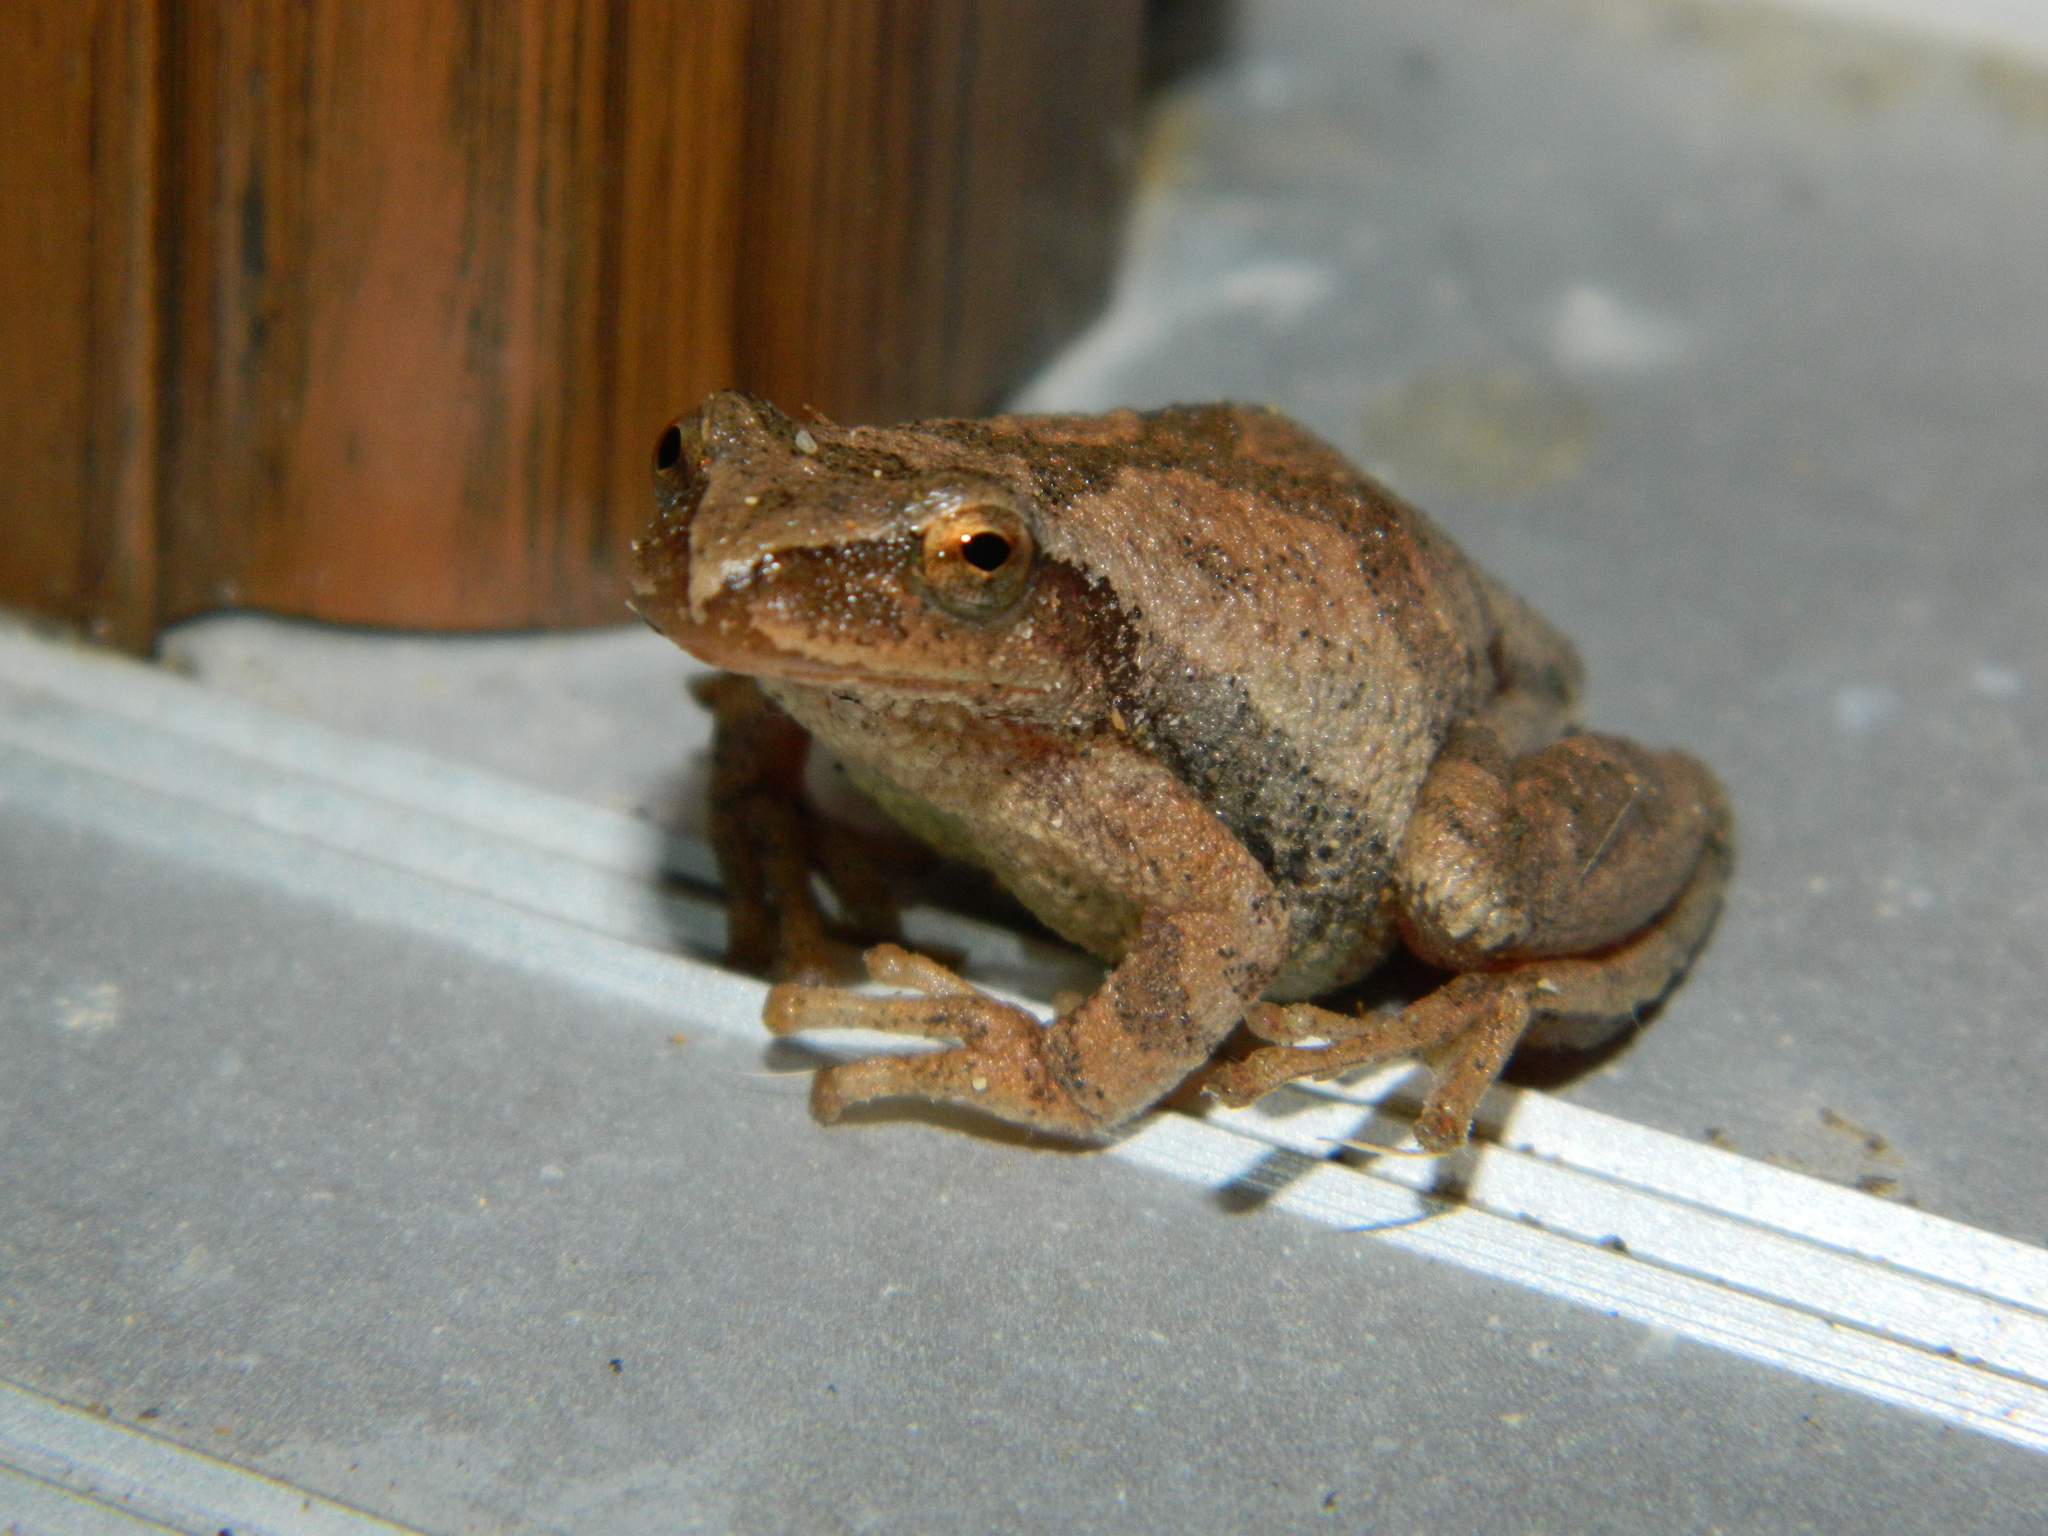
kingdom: Animalia
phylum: Chordata
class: Amphibia
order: Anura
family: Hylidae
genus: Pseudacris
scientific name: Pseudacris crucifer
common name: Spring peeper
